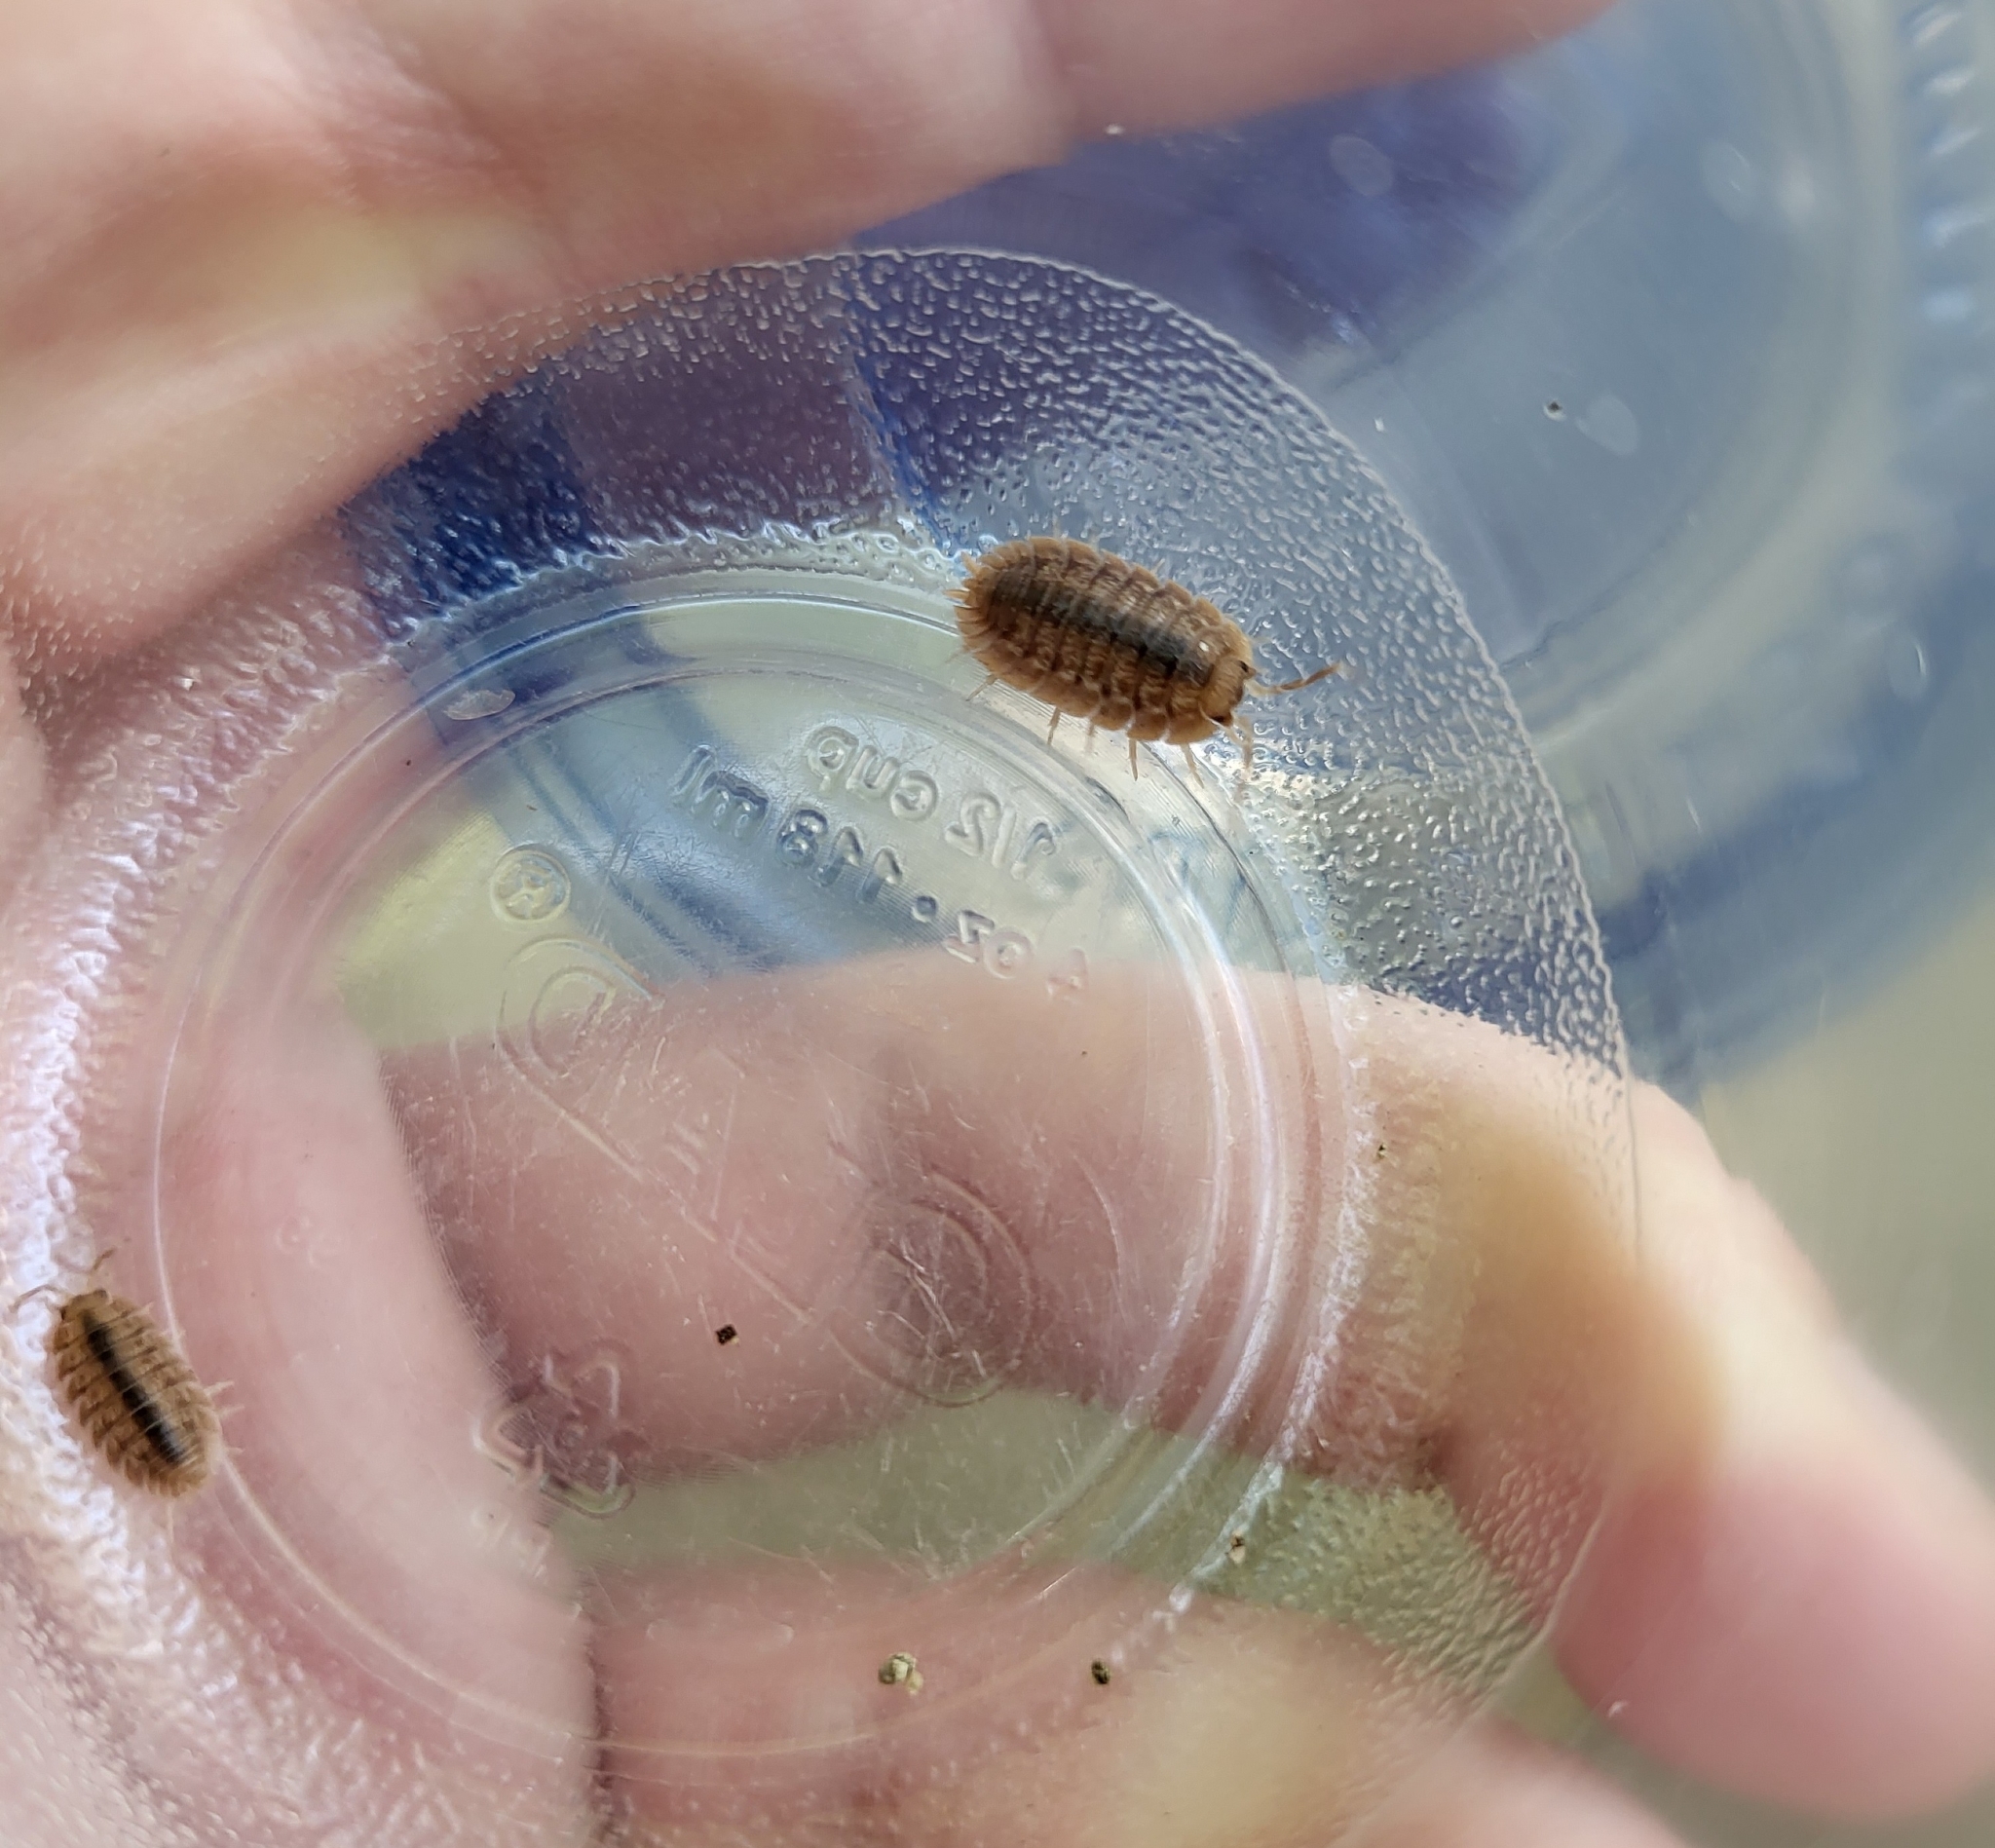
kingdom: Animalia
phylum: Arthropoda
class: Malacostraca
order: Isopoda
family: Porcellionidae
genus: Porcellio
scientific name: Porcellio dilatatus
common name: Isopod
